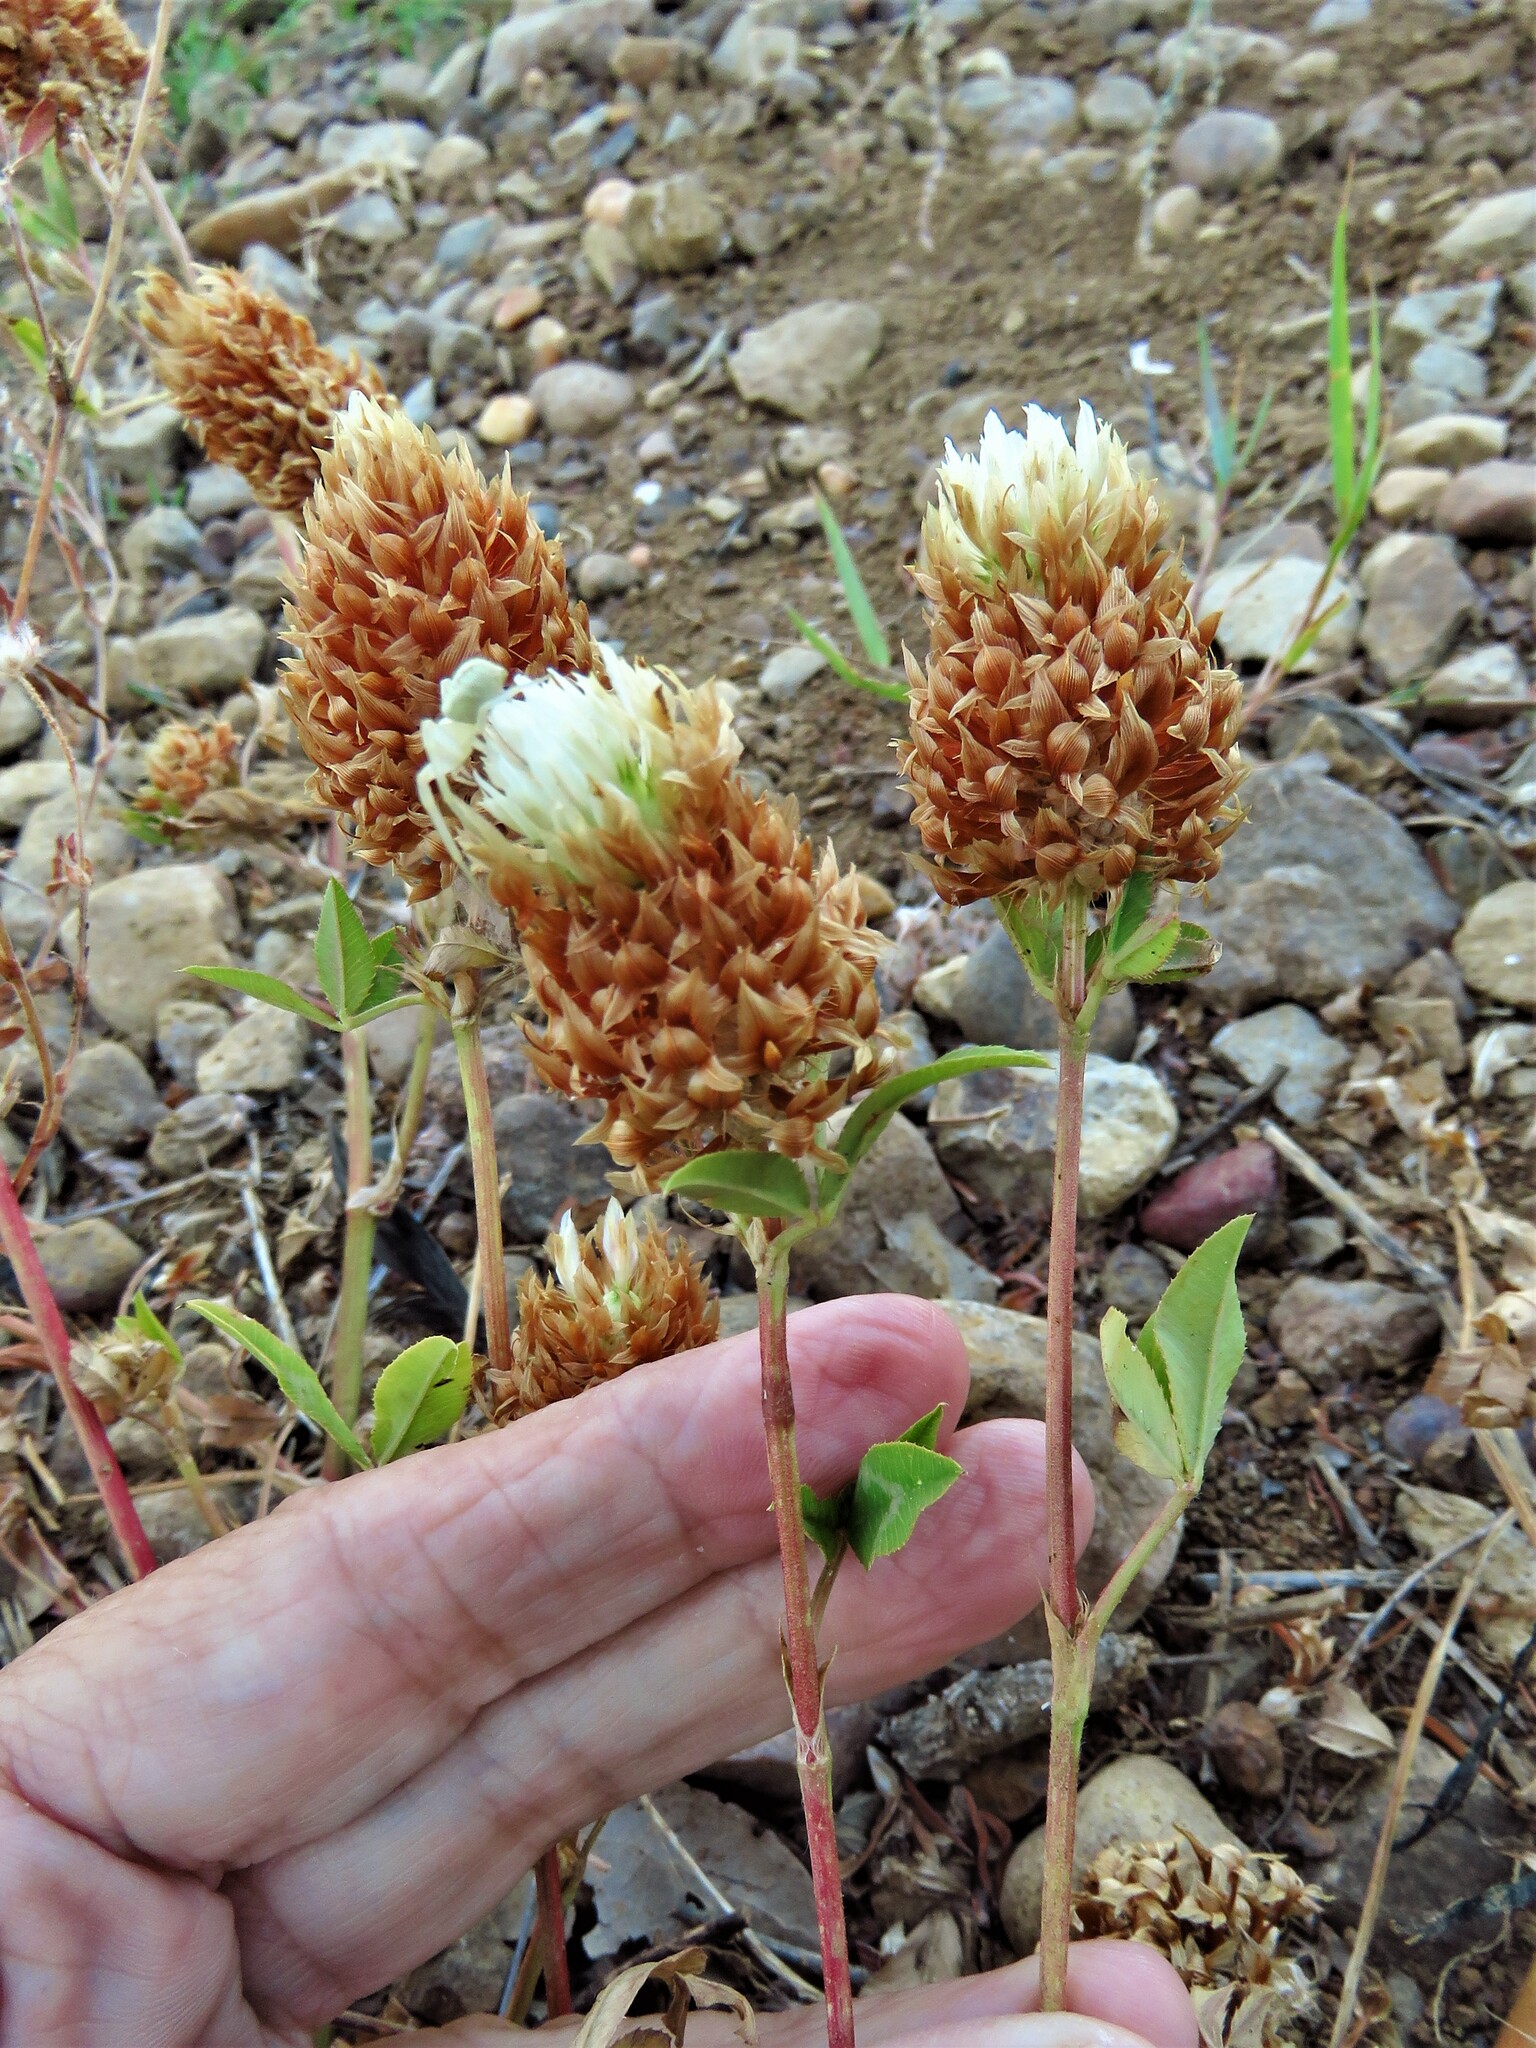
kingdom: Plantae
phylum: Tracheophyta
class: Magnoliopsida
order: Fabales
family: Fabaceae
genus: Trifolium
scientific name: Trifolium vesiculosum
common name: Arrowleaf clover
